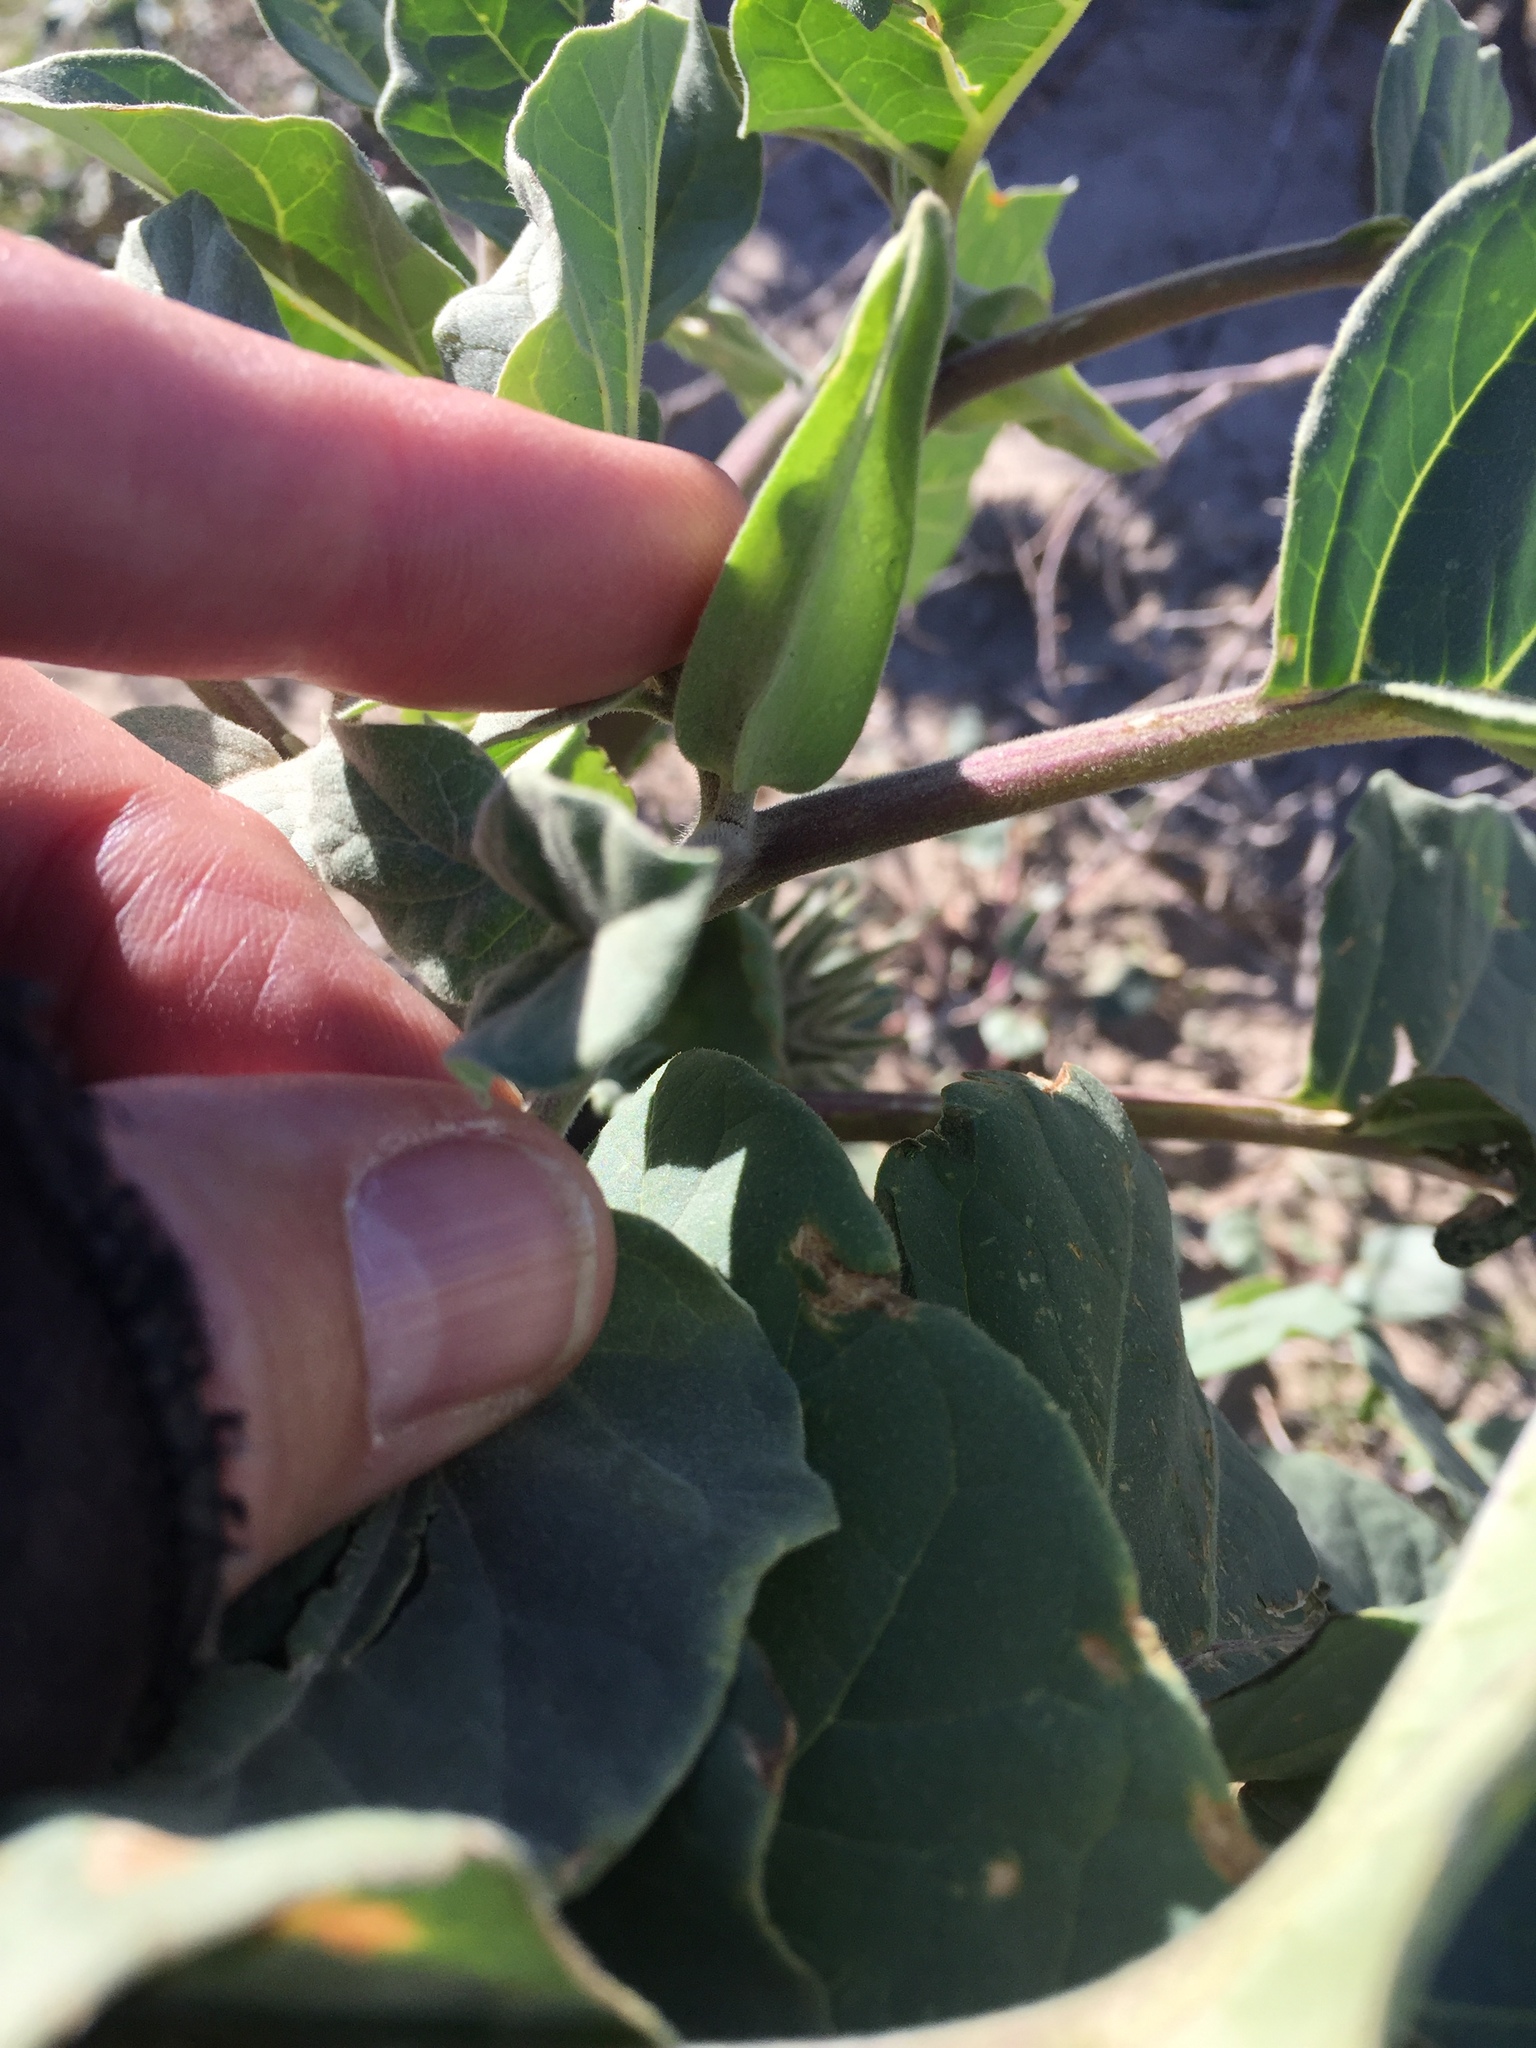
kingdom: Plantae
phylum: Tracheophyta
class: Magnoliopsida
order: Solanales
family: Solanaceae
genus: Datura
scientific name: Datura discolor
